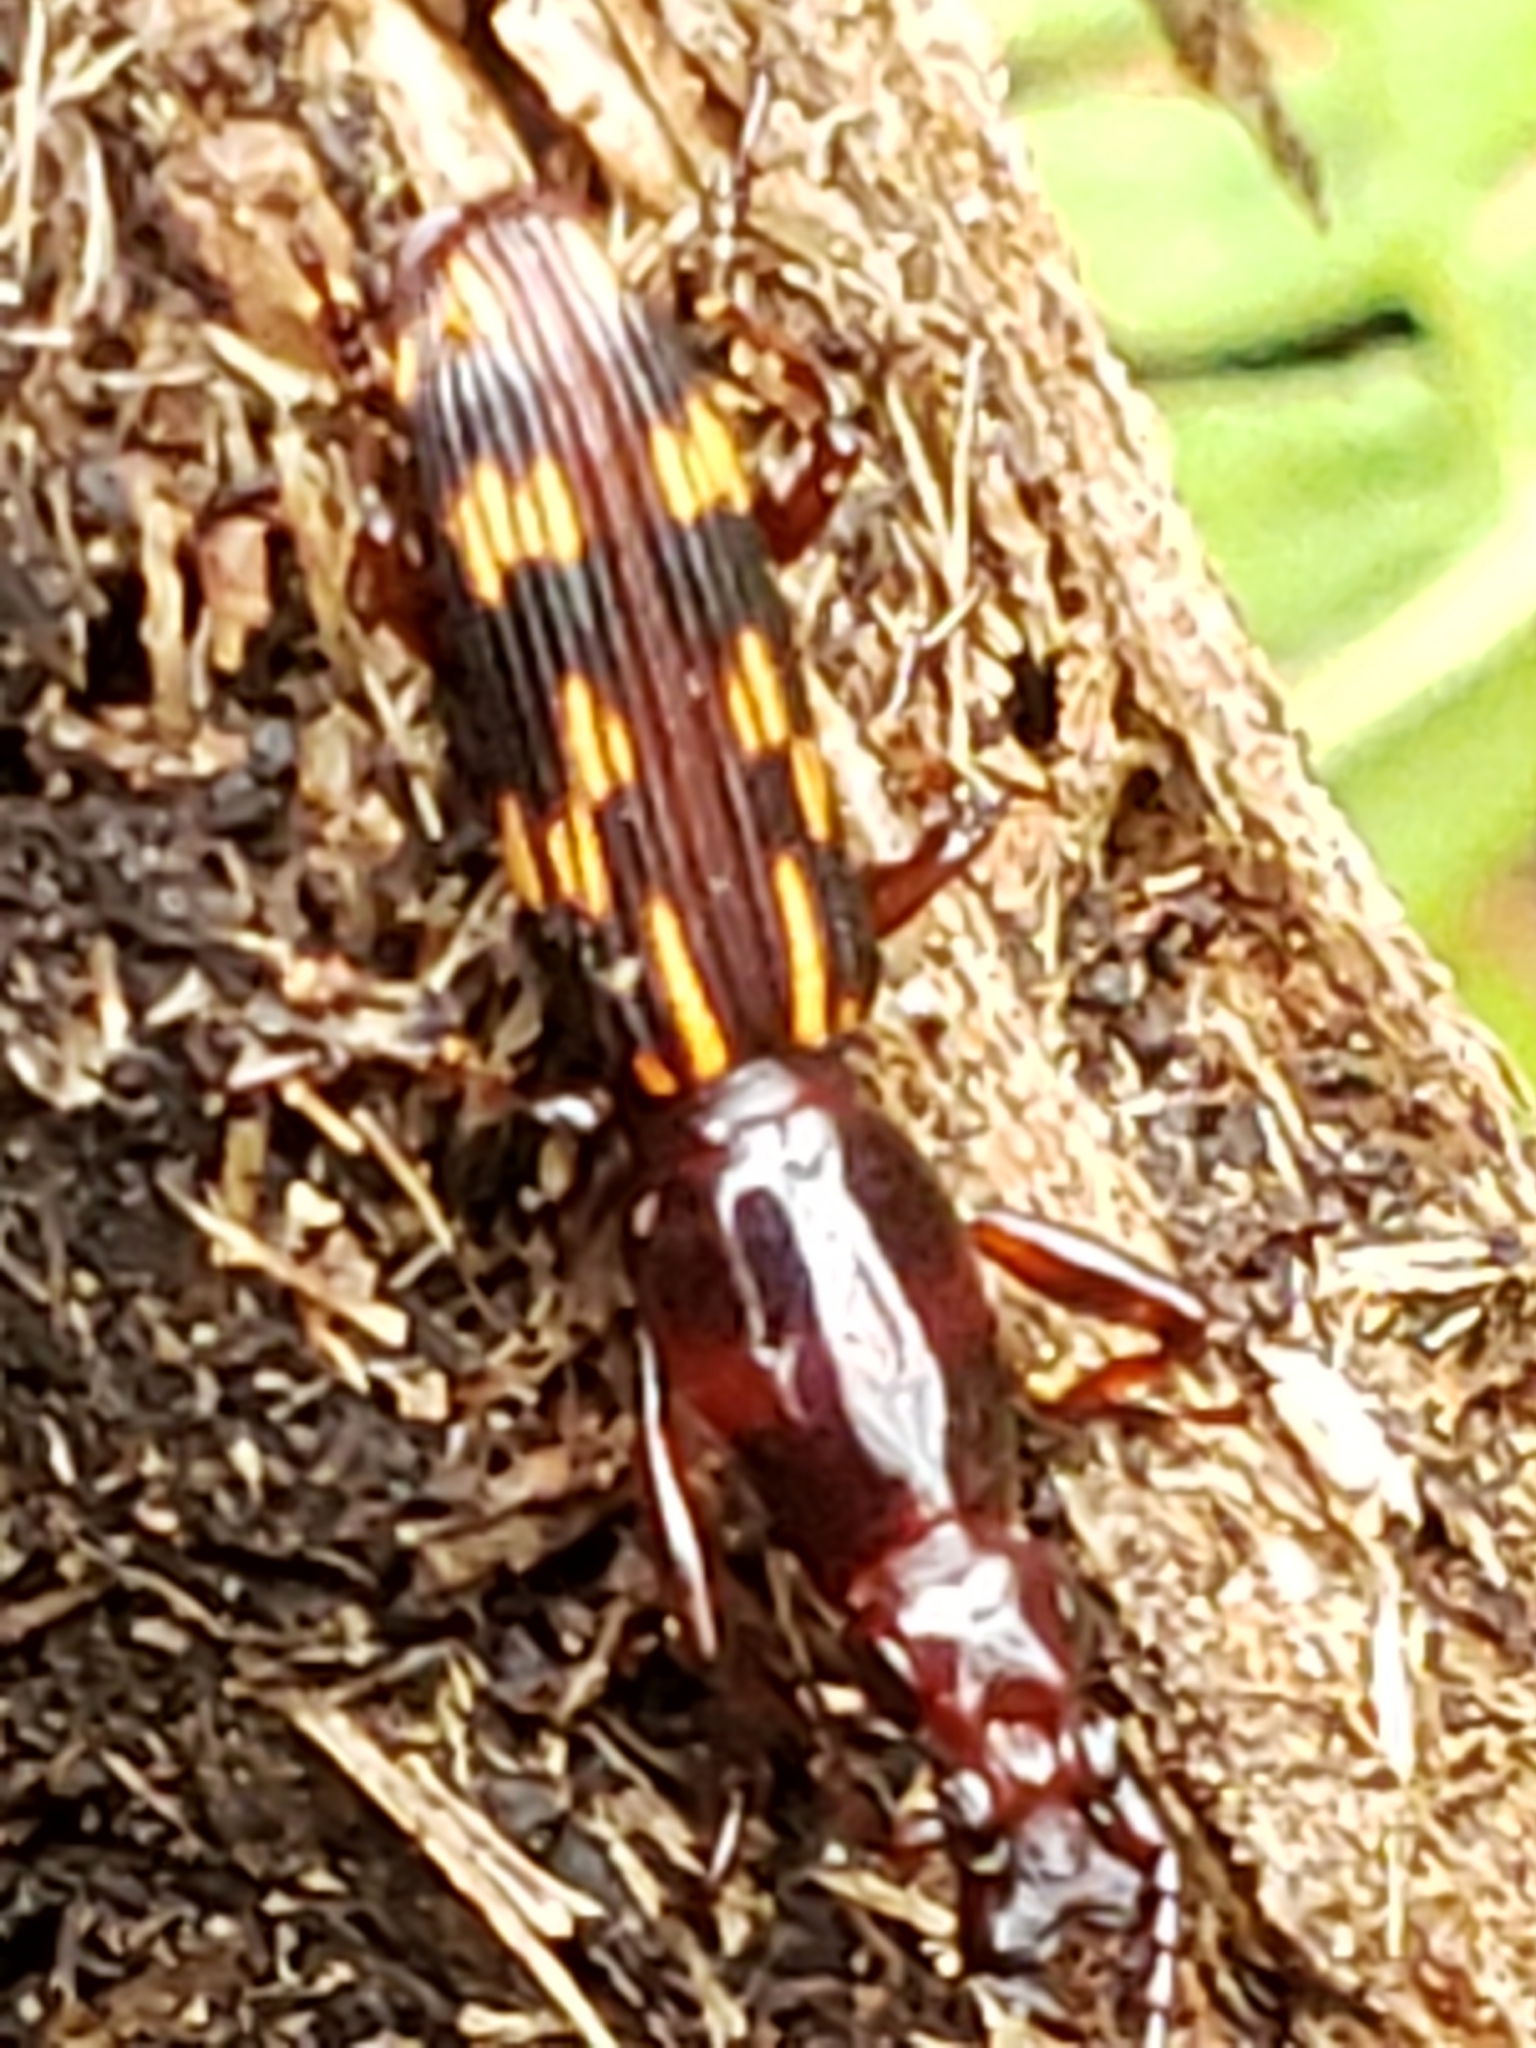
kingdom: Animalia
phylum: Arthropoda
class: Insecta
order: Coleoptera
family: Brentidae
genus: Arrenodes
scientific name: Arrenodes minutus
